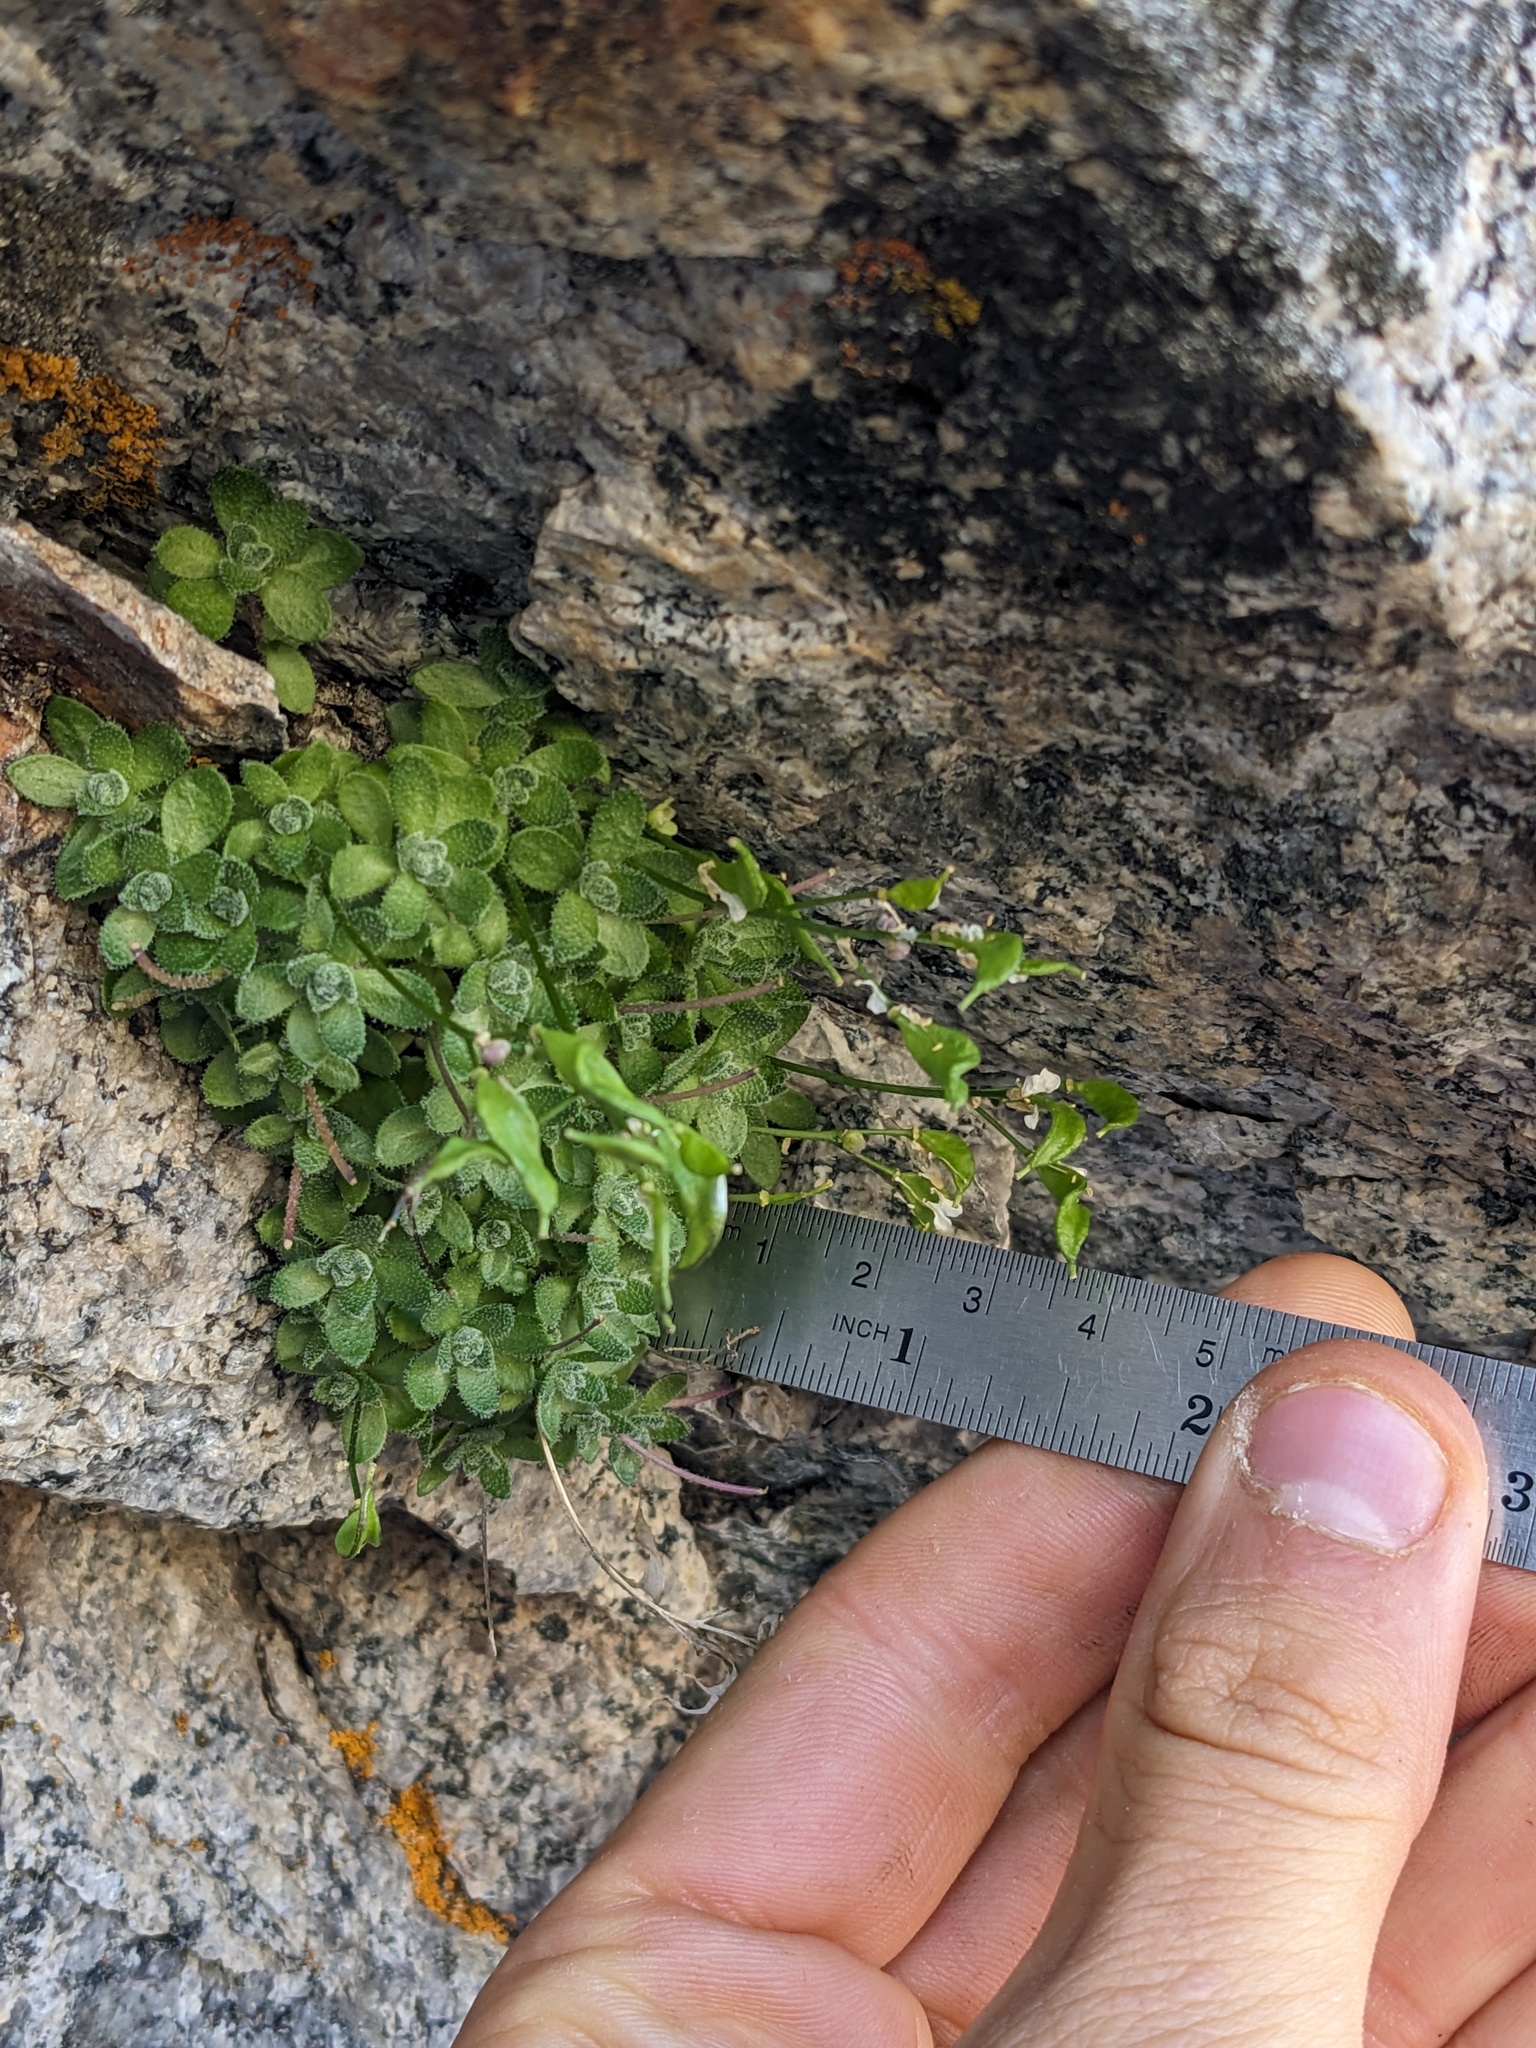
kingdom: Plantae
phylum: Tracheophyta
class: Magnoliopsida
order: Brassicales
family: Brassicaceae
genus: Draba
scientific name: Draba sharsmithii
